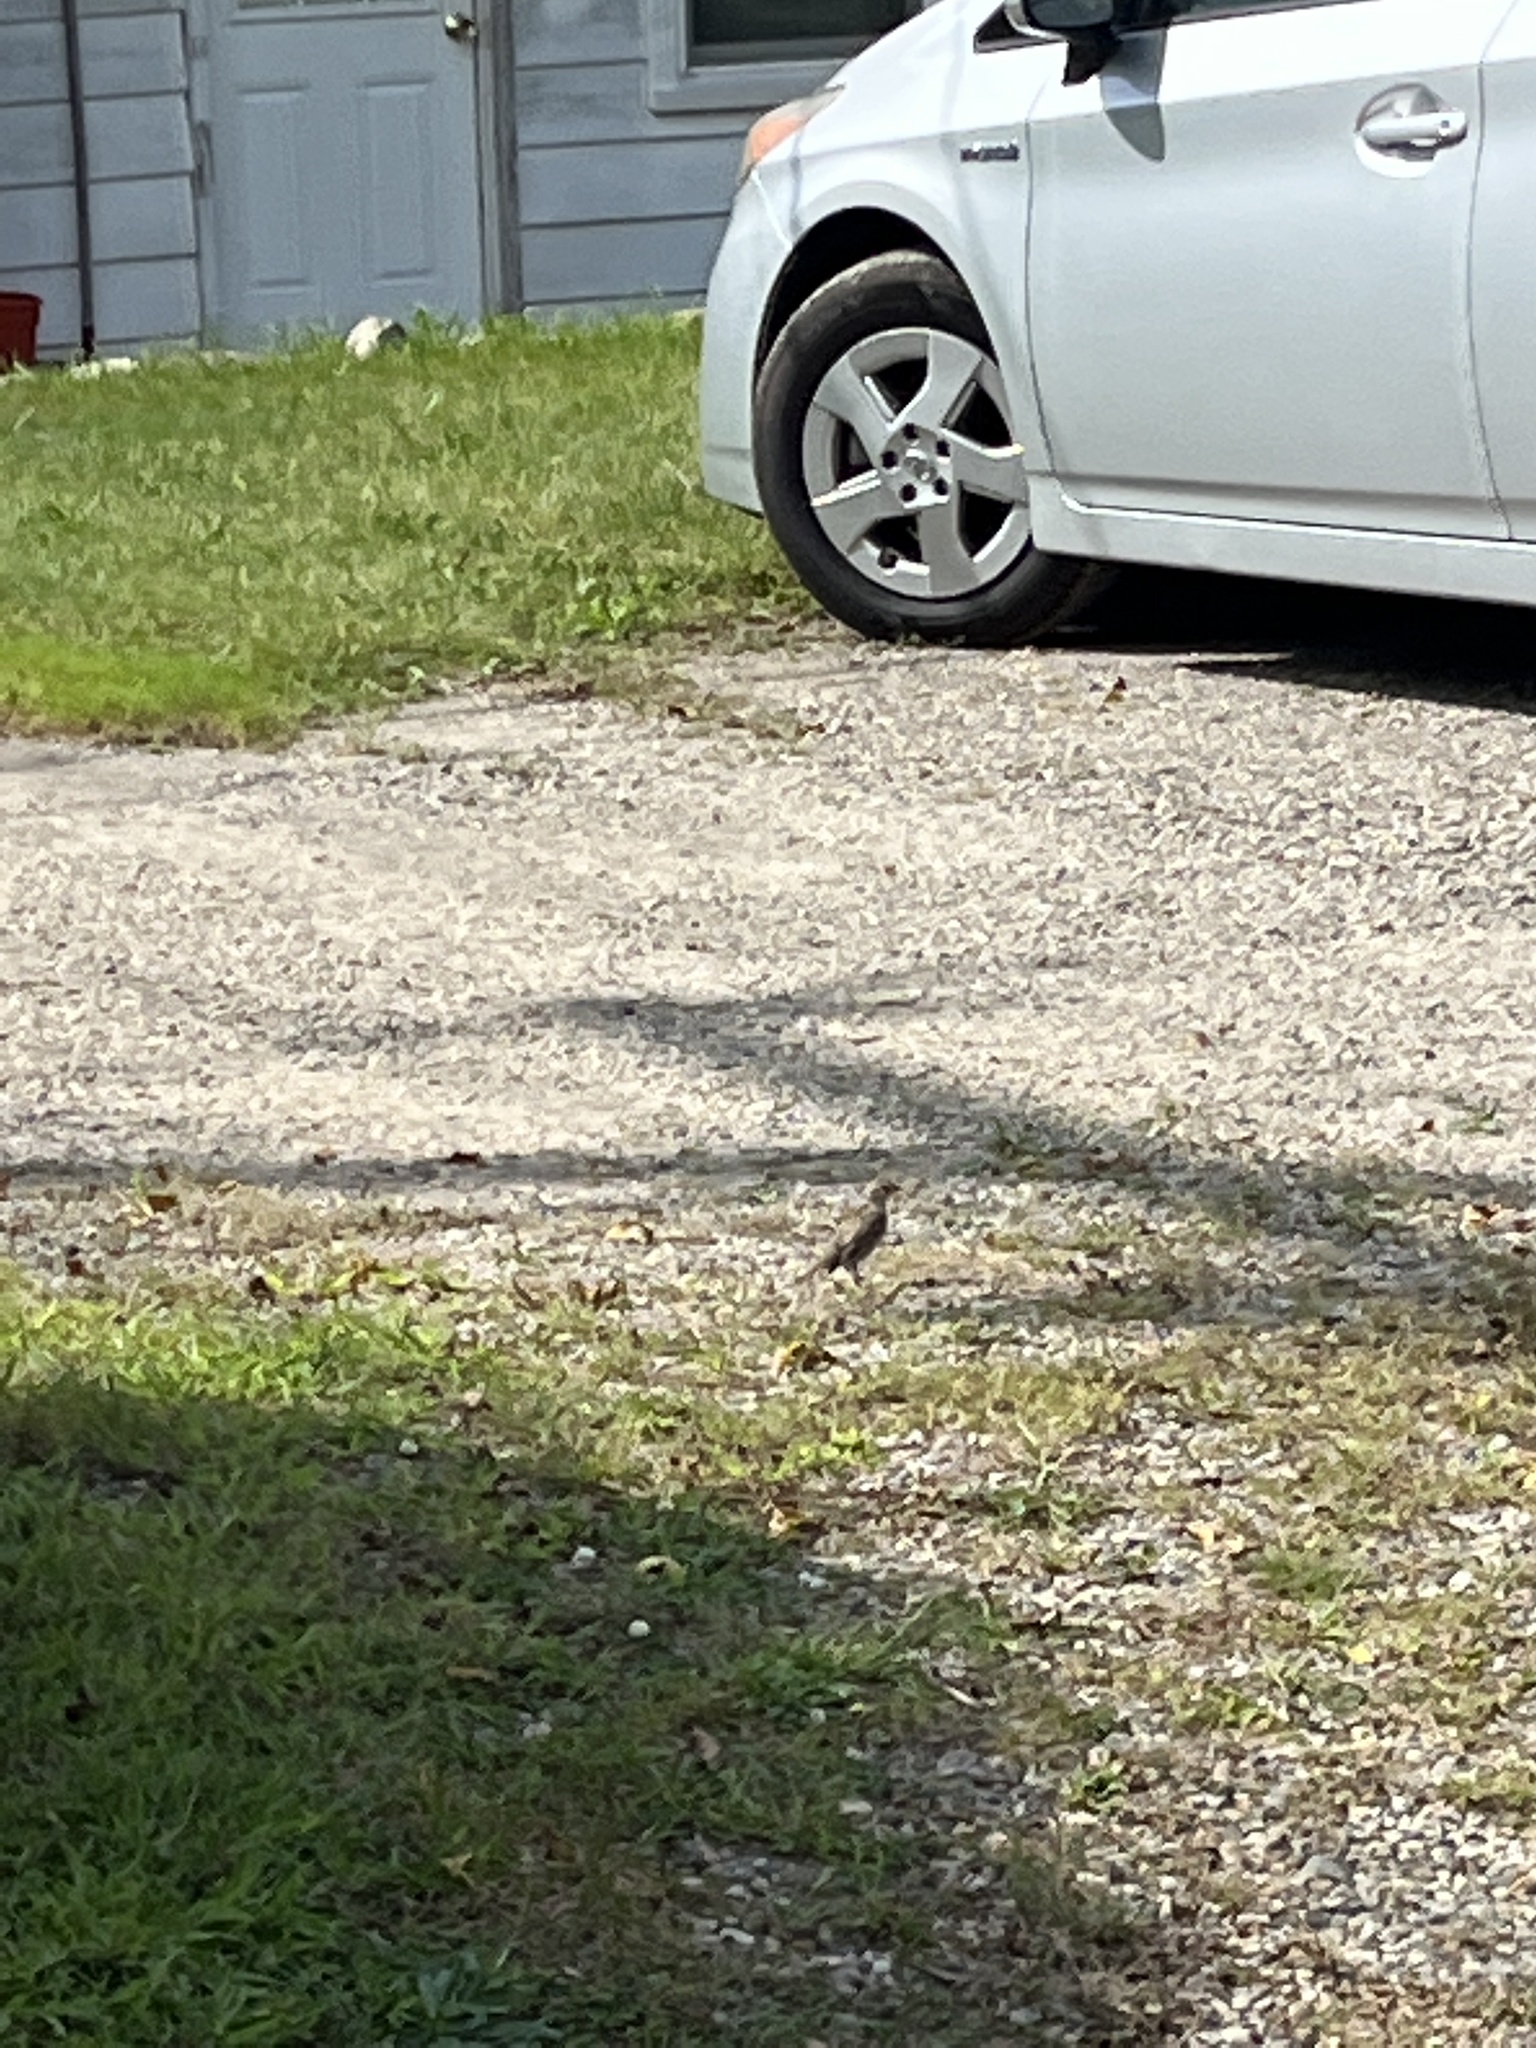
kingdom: Animalia
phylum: Chordata
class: Aves
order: Passeriformes
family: Passeridae
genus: Passer
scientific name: Passer domesticus
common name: House sparrow
